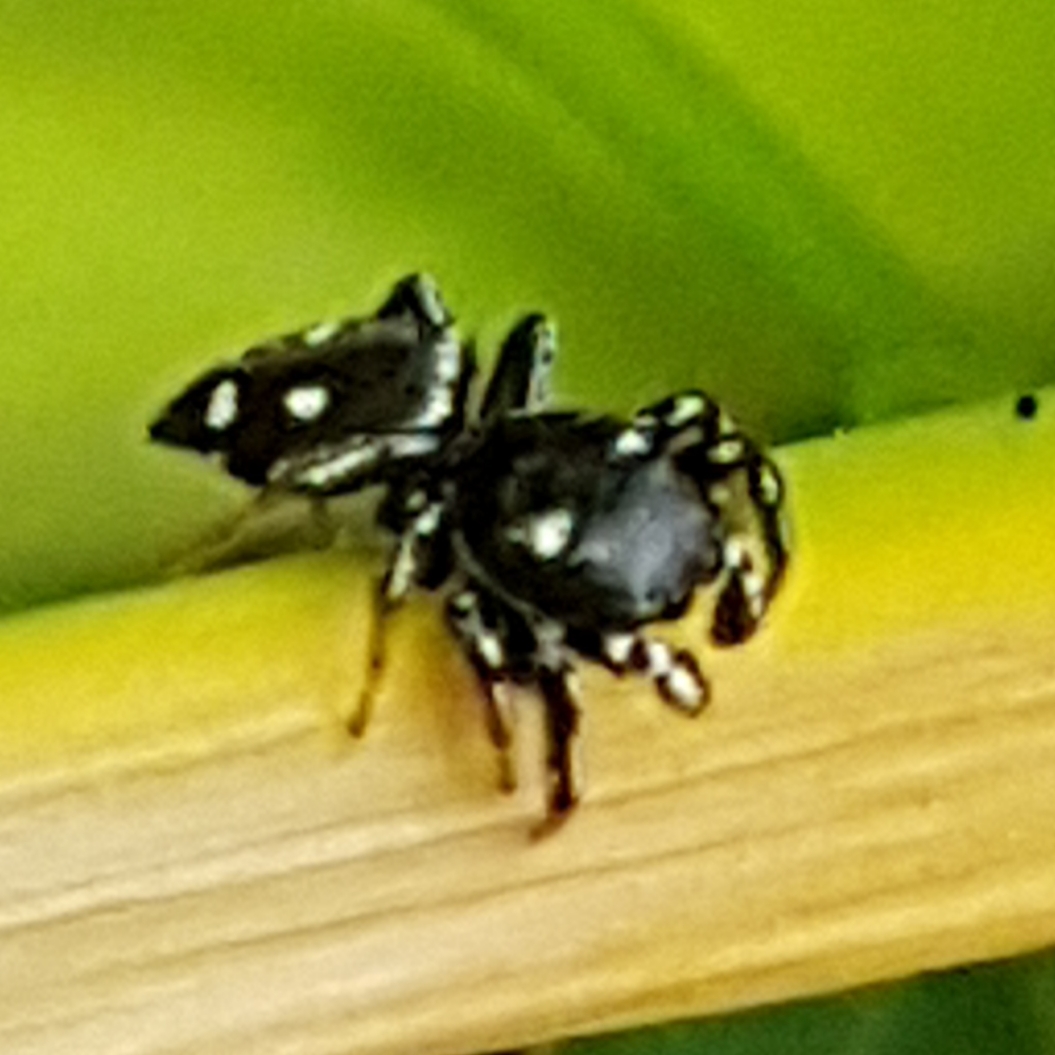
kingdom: Animalia
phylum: Arthropoda
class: Arachnida
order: Araneae
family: Salticidae
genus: Heliophanus
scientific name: Heliophanus apiatus
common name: Sun jumping spider
